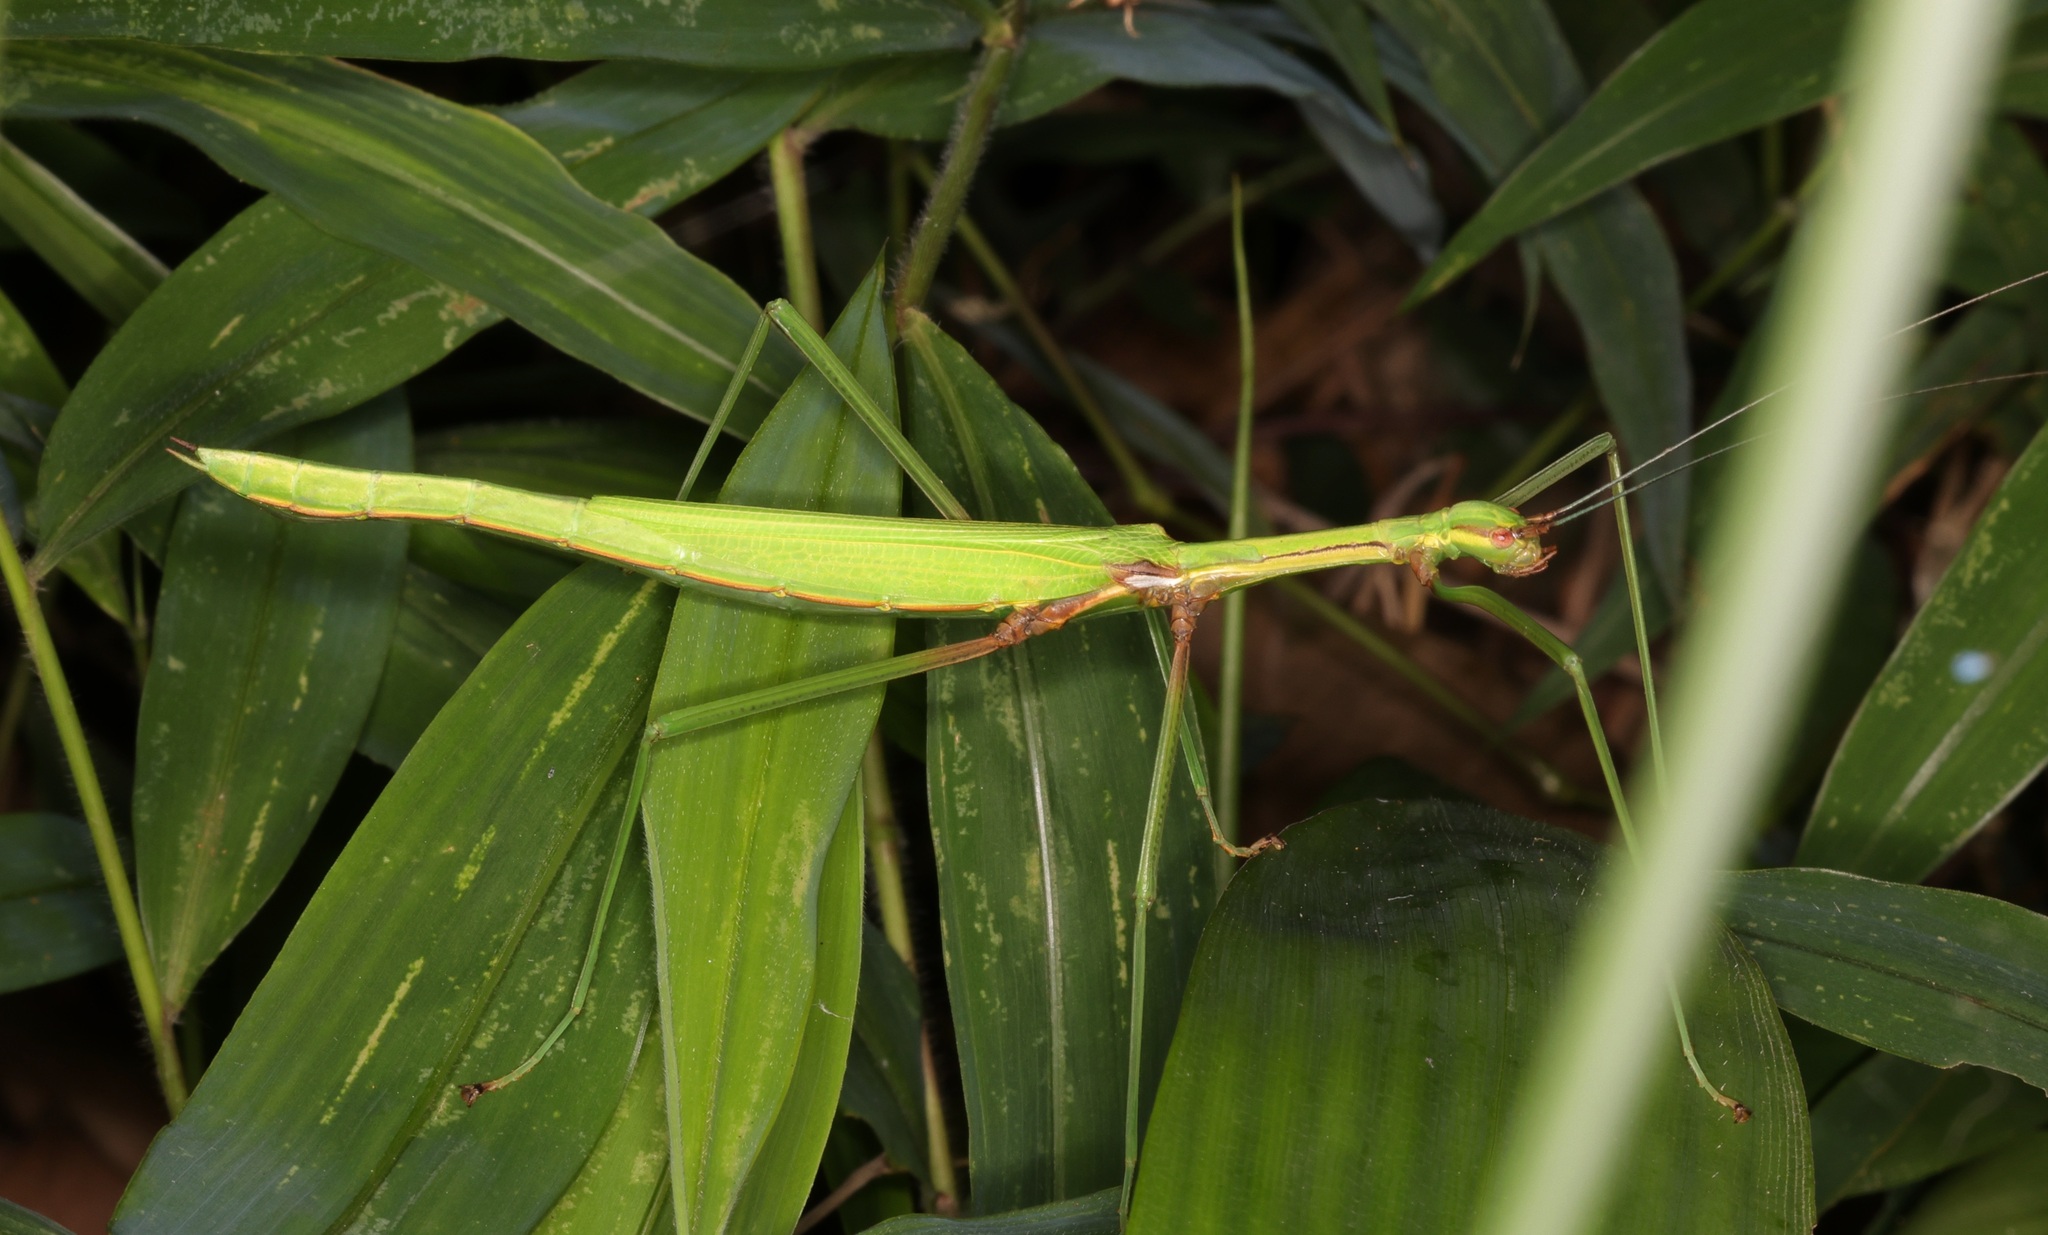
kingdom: Animalia
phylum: Arthropoda
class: Insecta
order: Phasmida
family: Lonchodidae
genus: Huananphasma
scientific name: Huananphasma amicum
